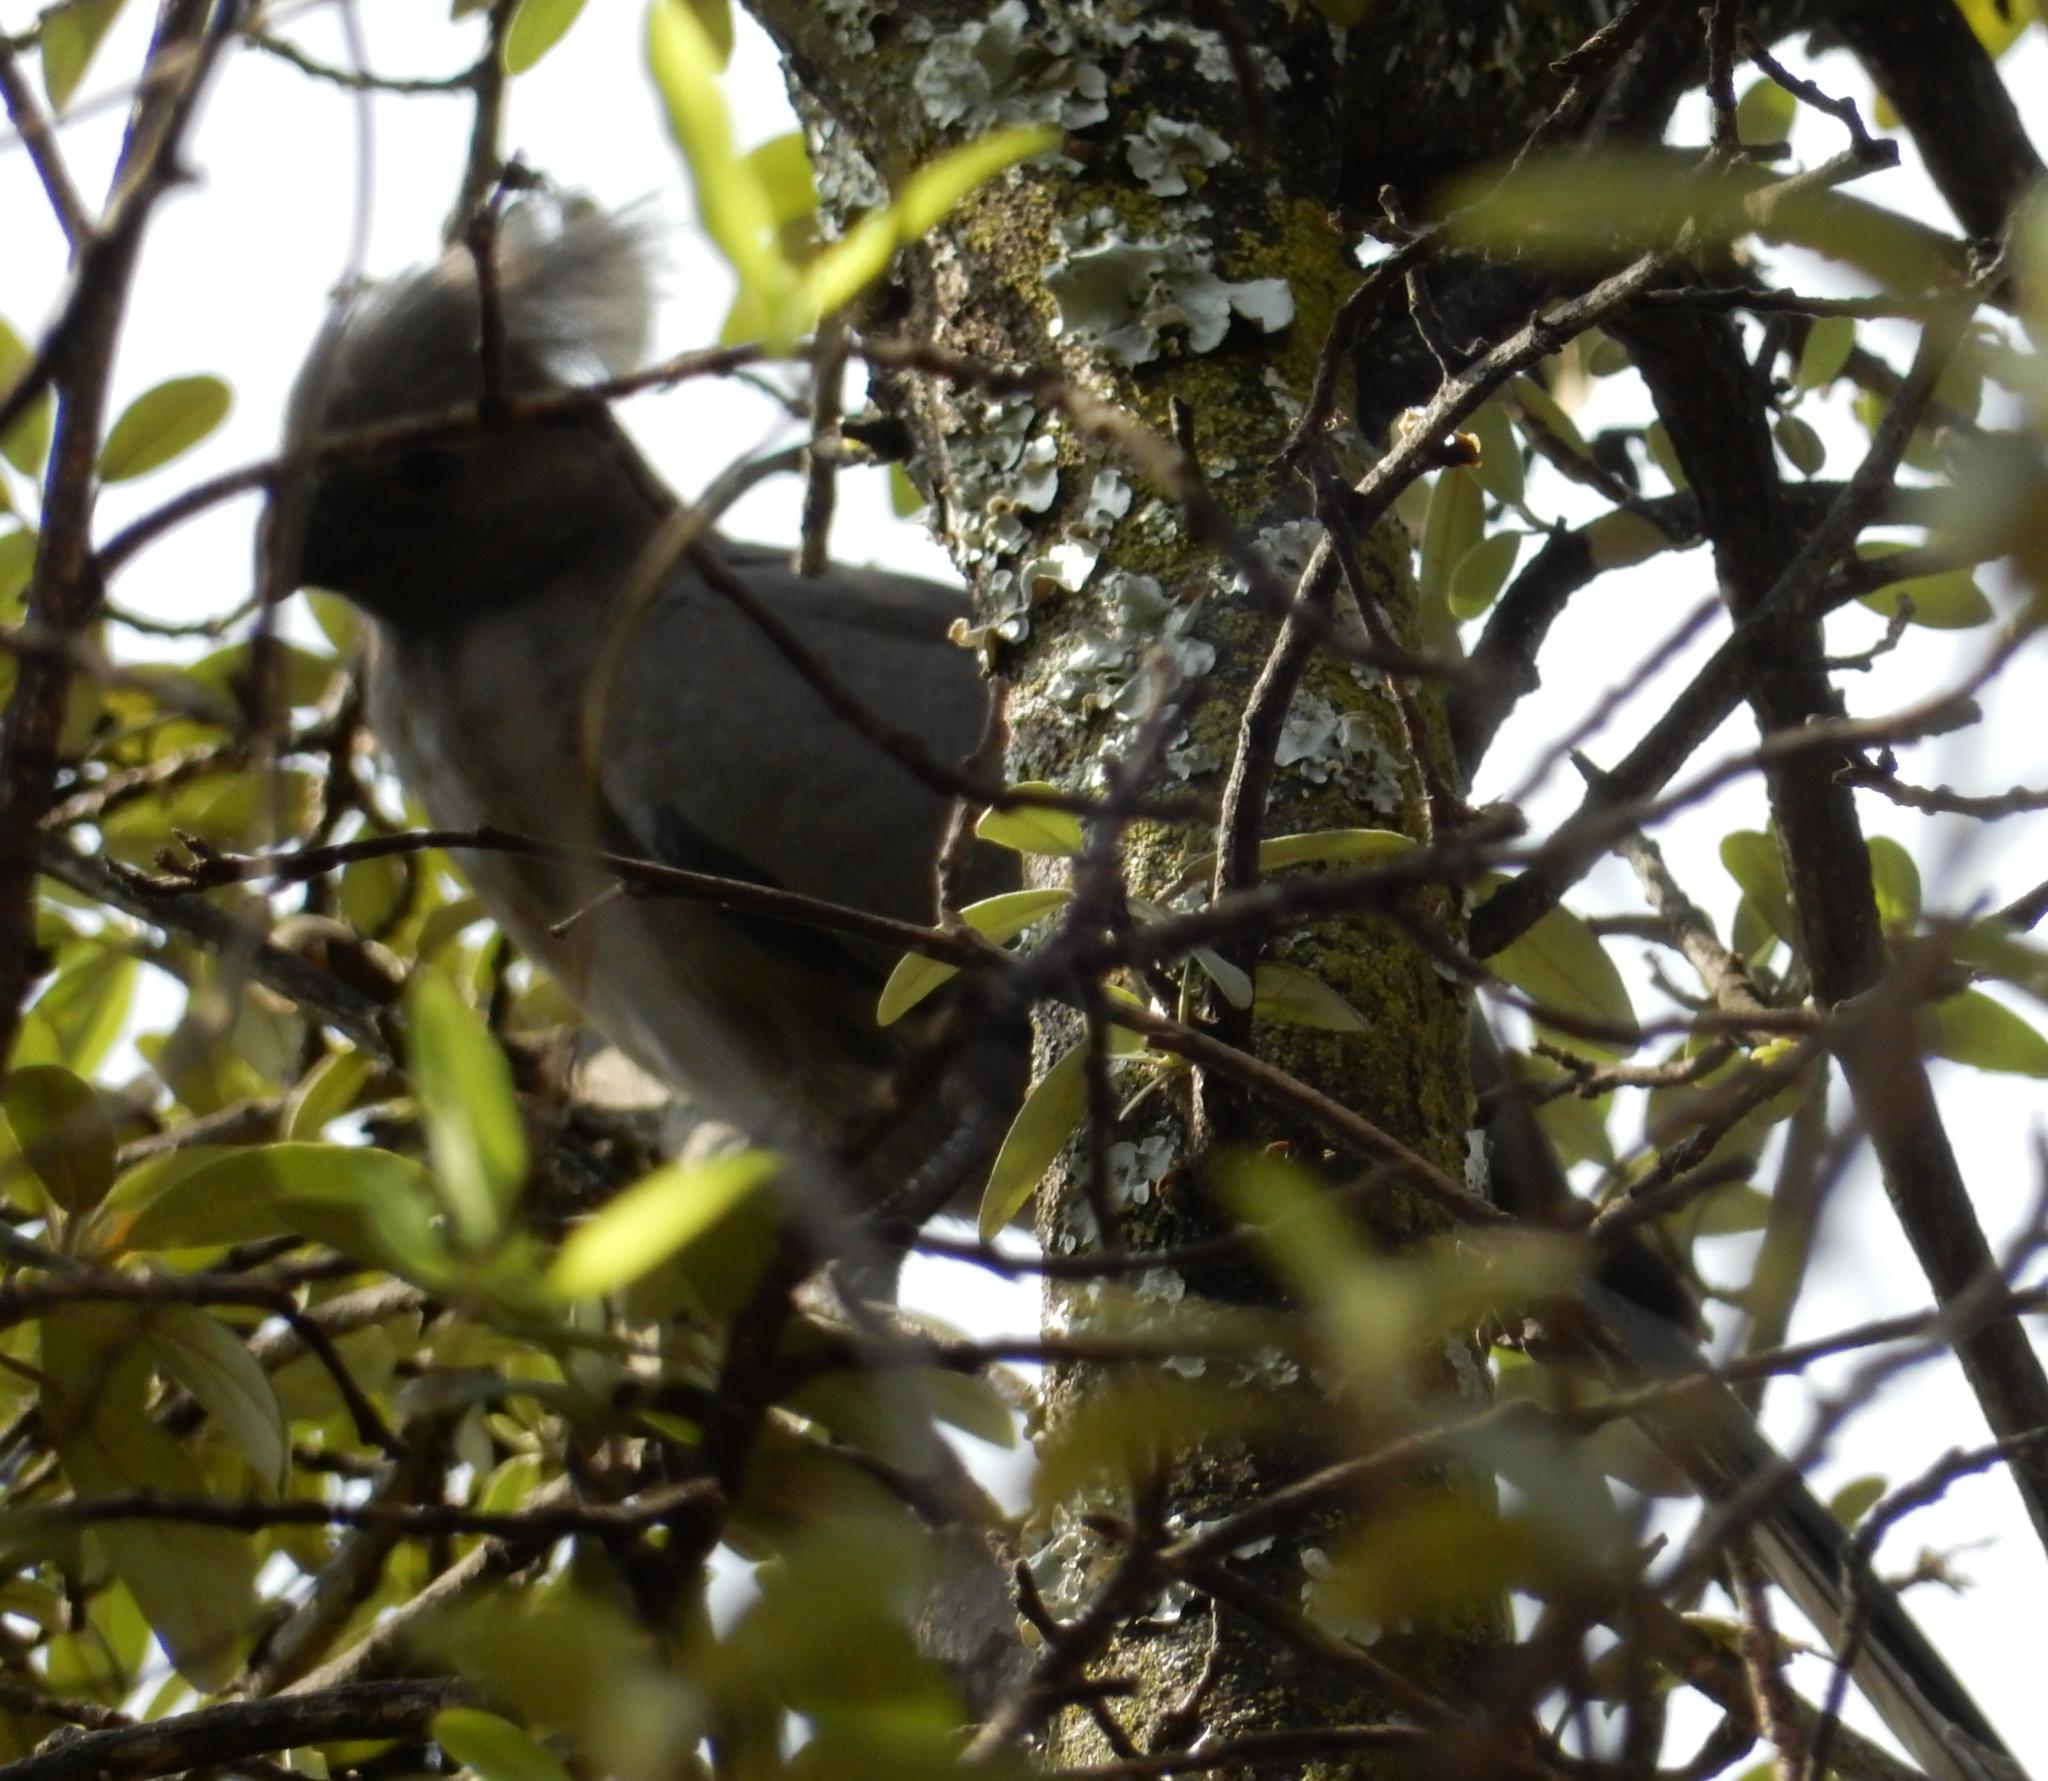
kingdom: Animalia
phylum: Chordata
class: Aves
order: Musophagiformes
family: Musophagidae
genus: Corythaixoides
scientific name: Corythaixoides concolor
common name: Grey go-away-bird
